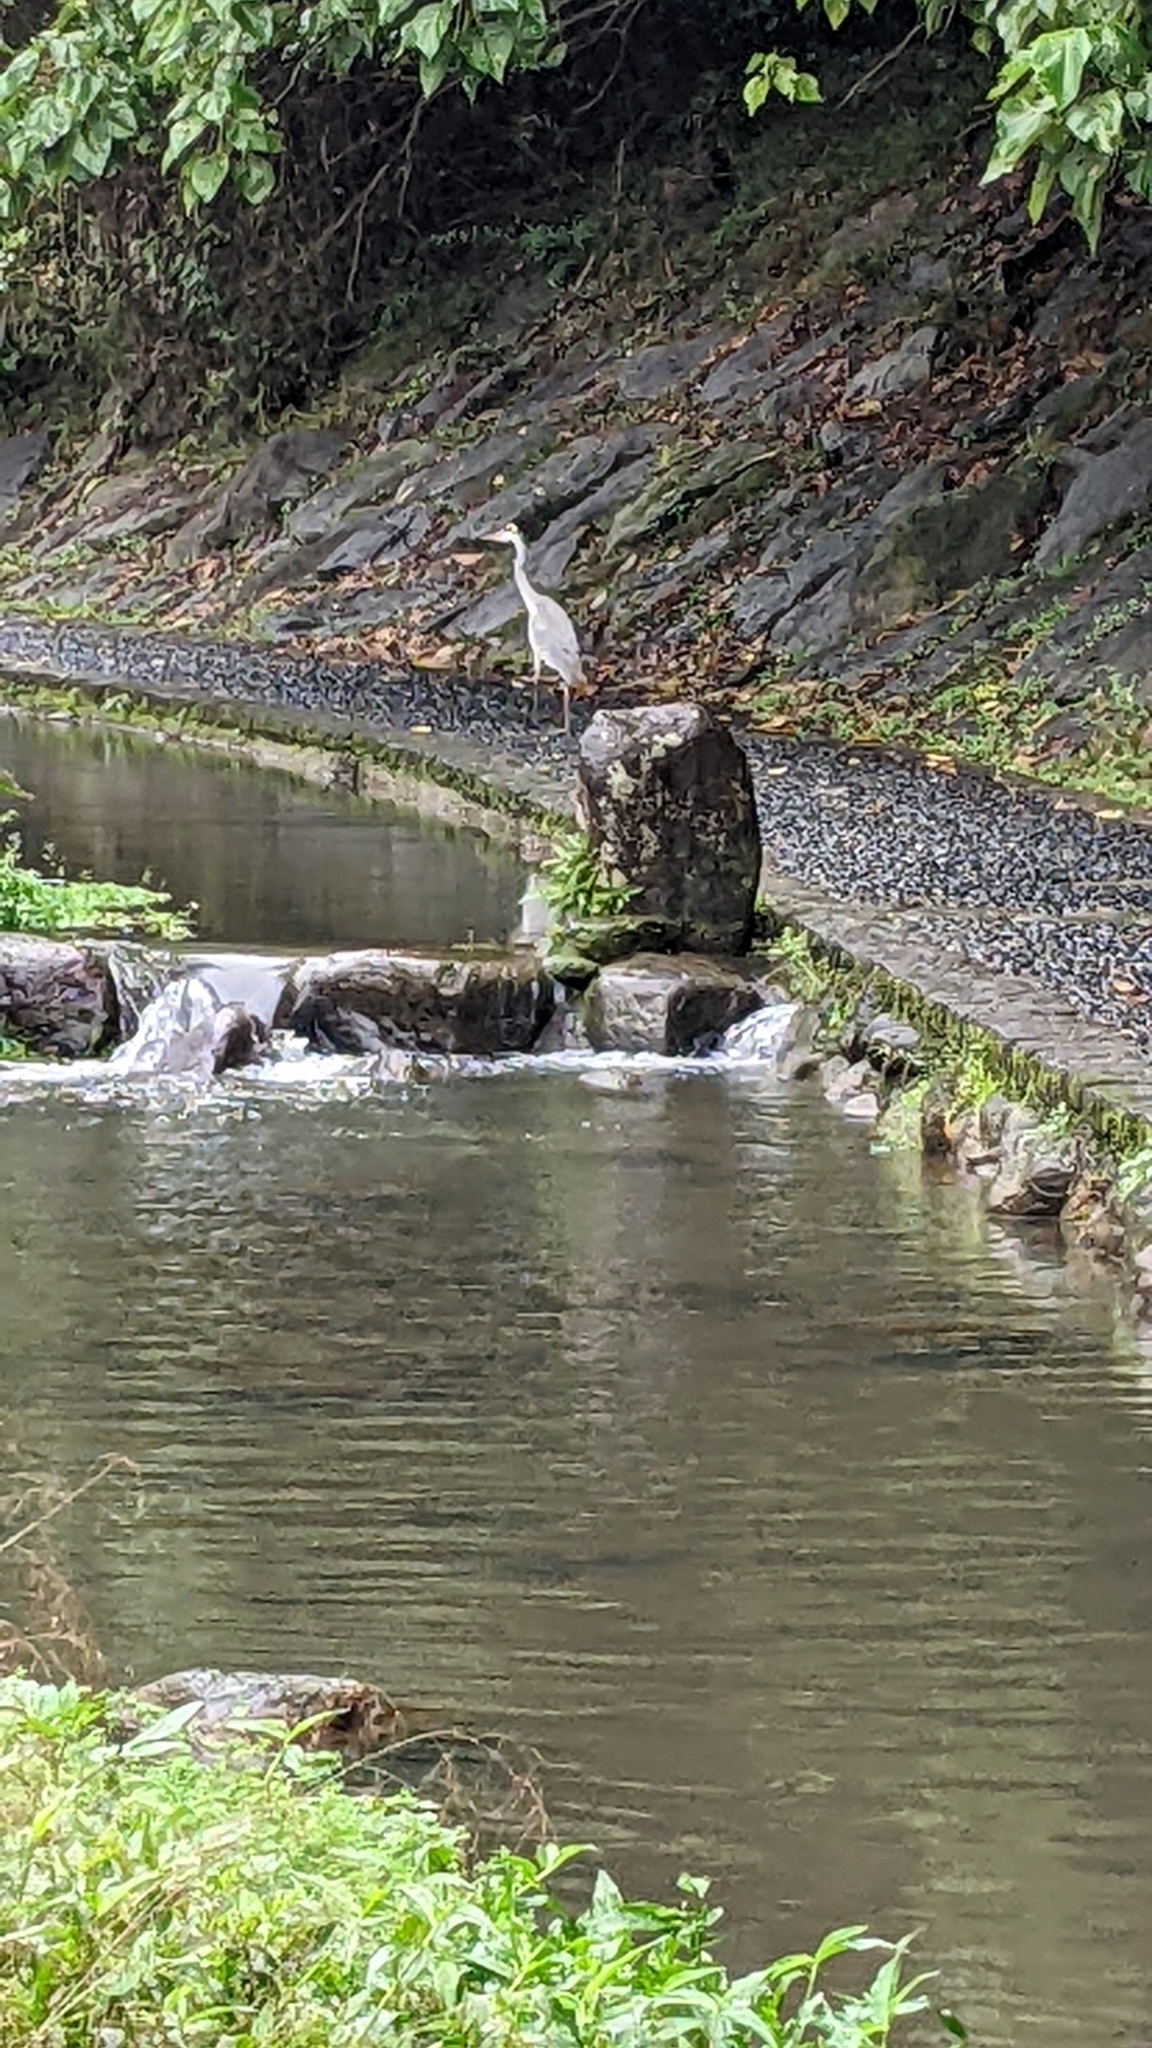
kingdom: Animalia
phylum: Chordata
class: Aves
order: Pelecaniformes
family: Ardeidae
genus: Ardea
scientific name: Ardea cinerea
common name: Grey heron
